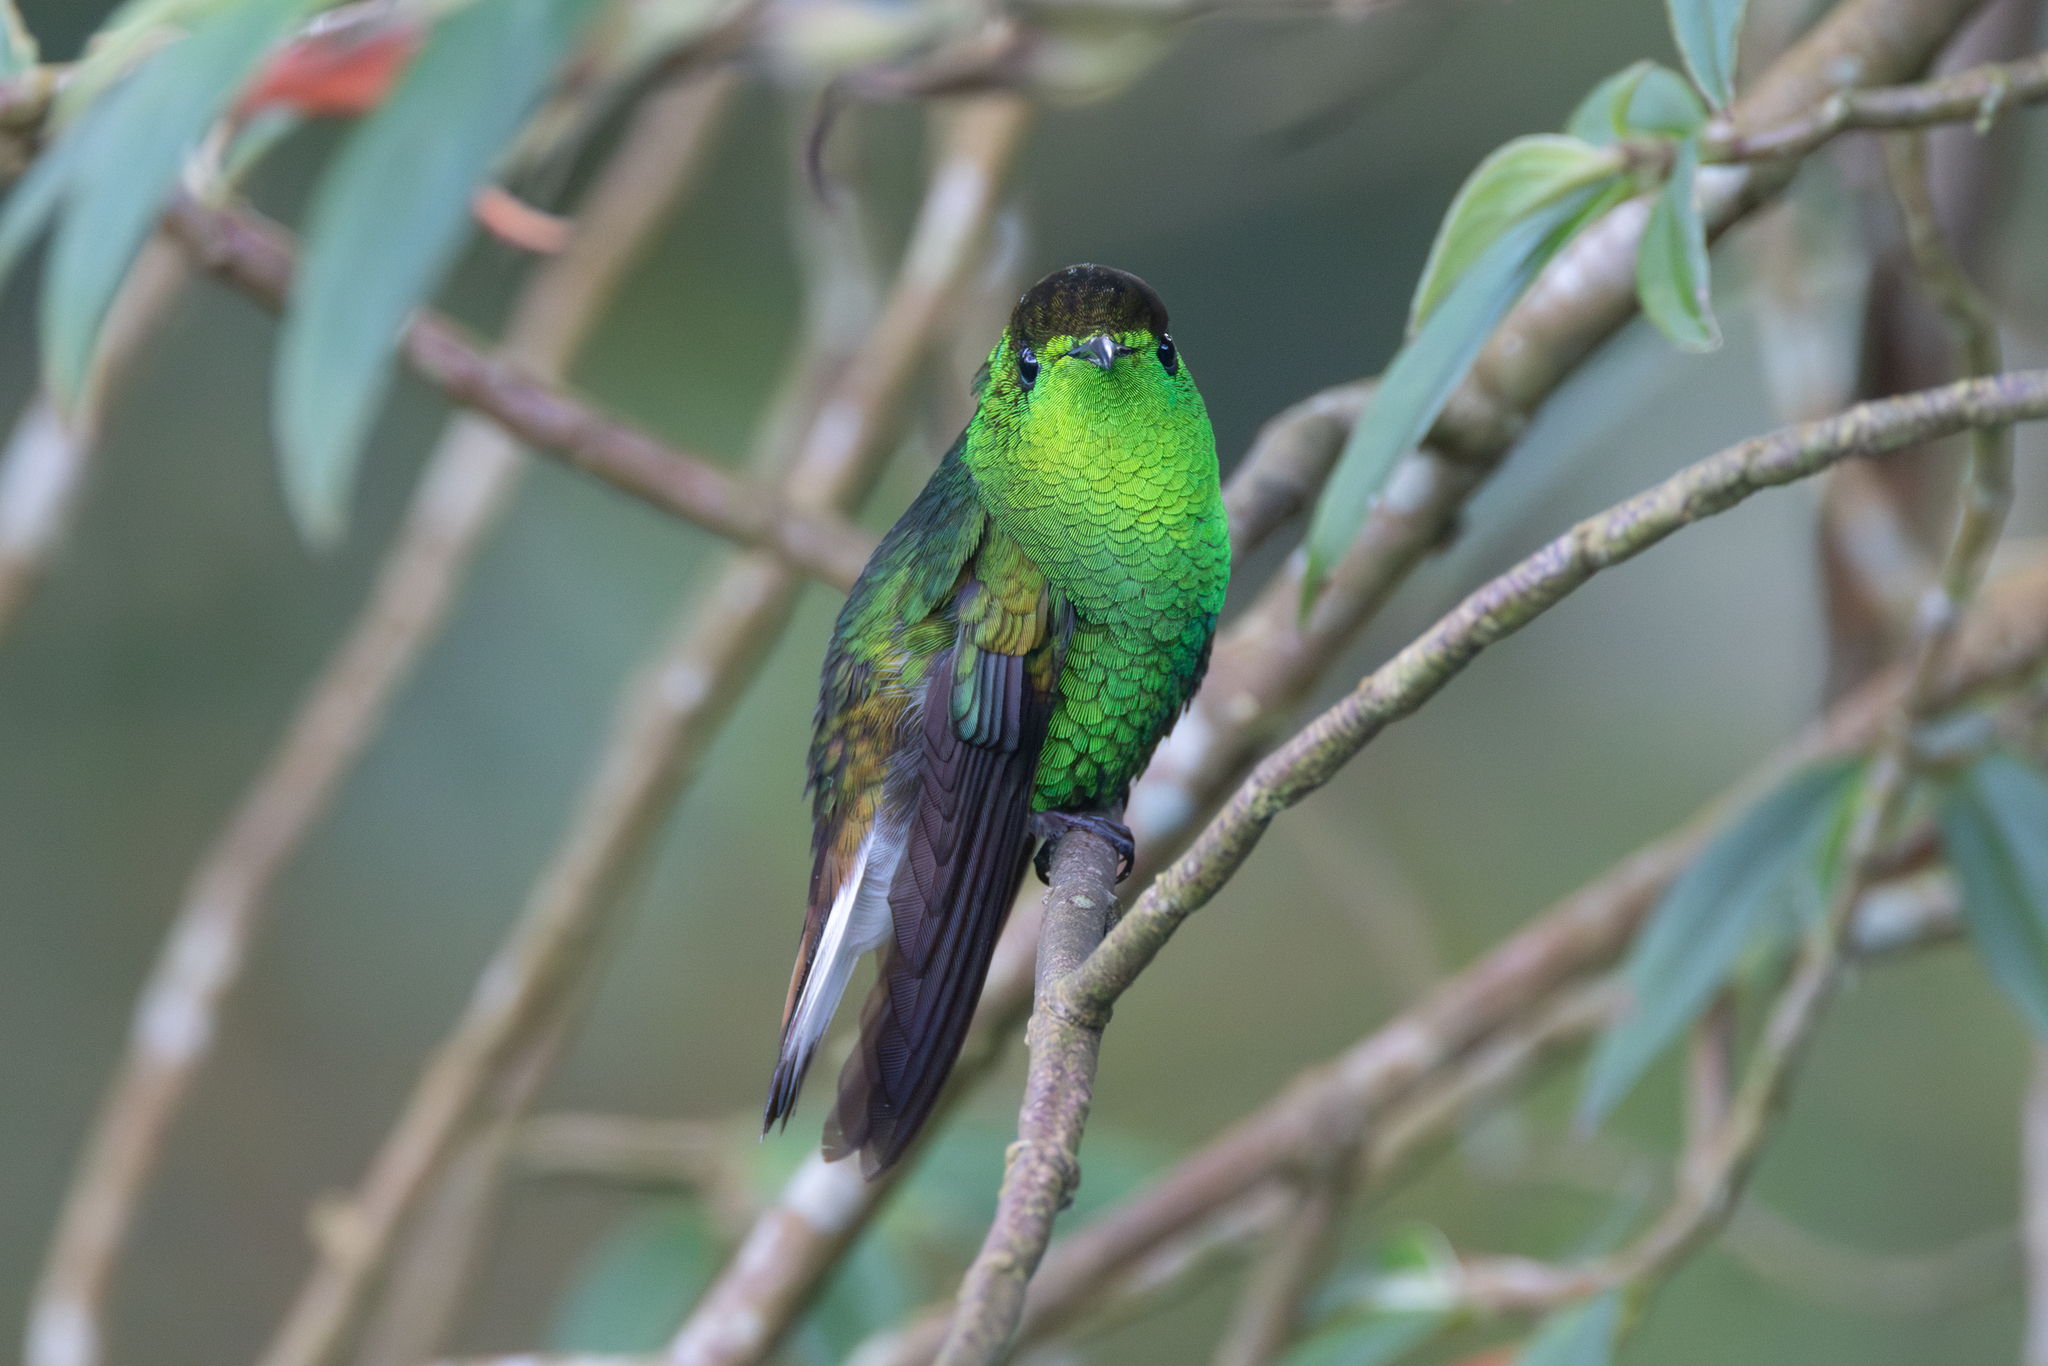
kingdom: Animalia
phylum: Chordata
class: Aves
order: Apodiformes
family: Trochilidae
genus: Microchera
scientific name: Microchera cupreiceps
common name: Coppery-headed emerald
